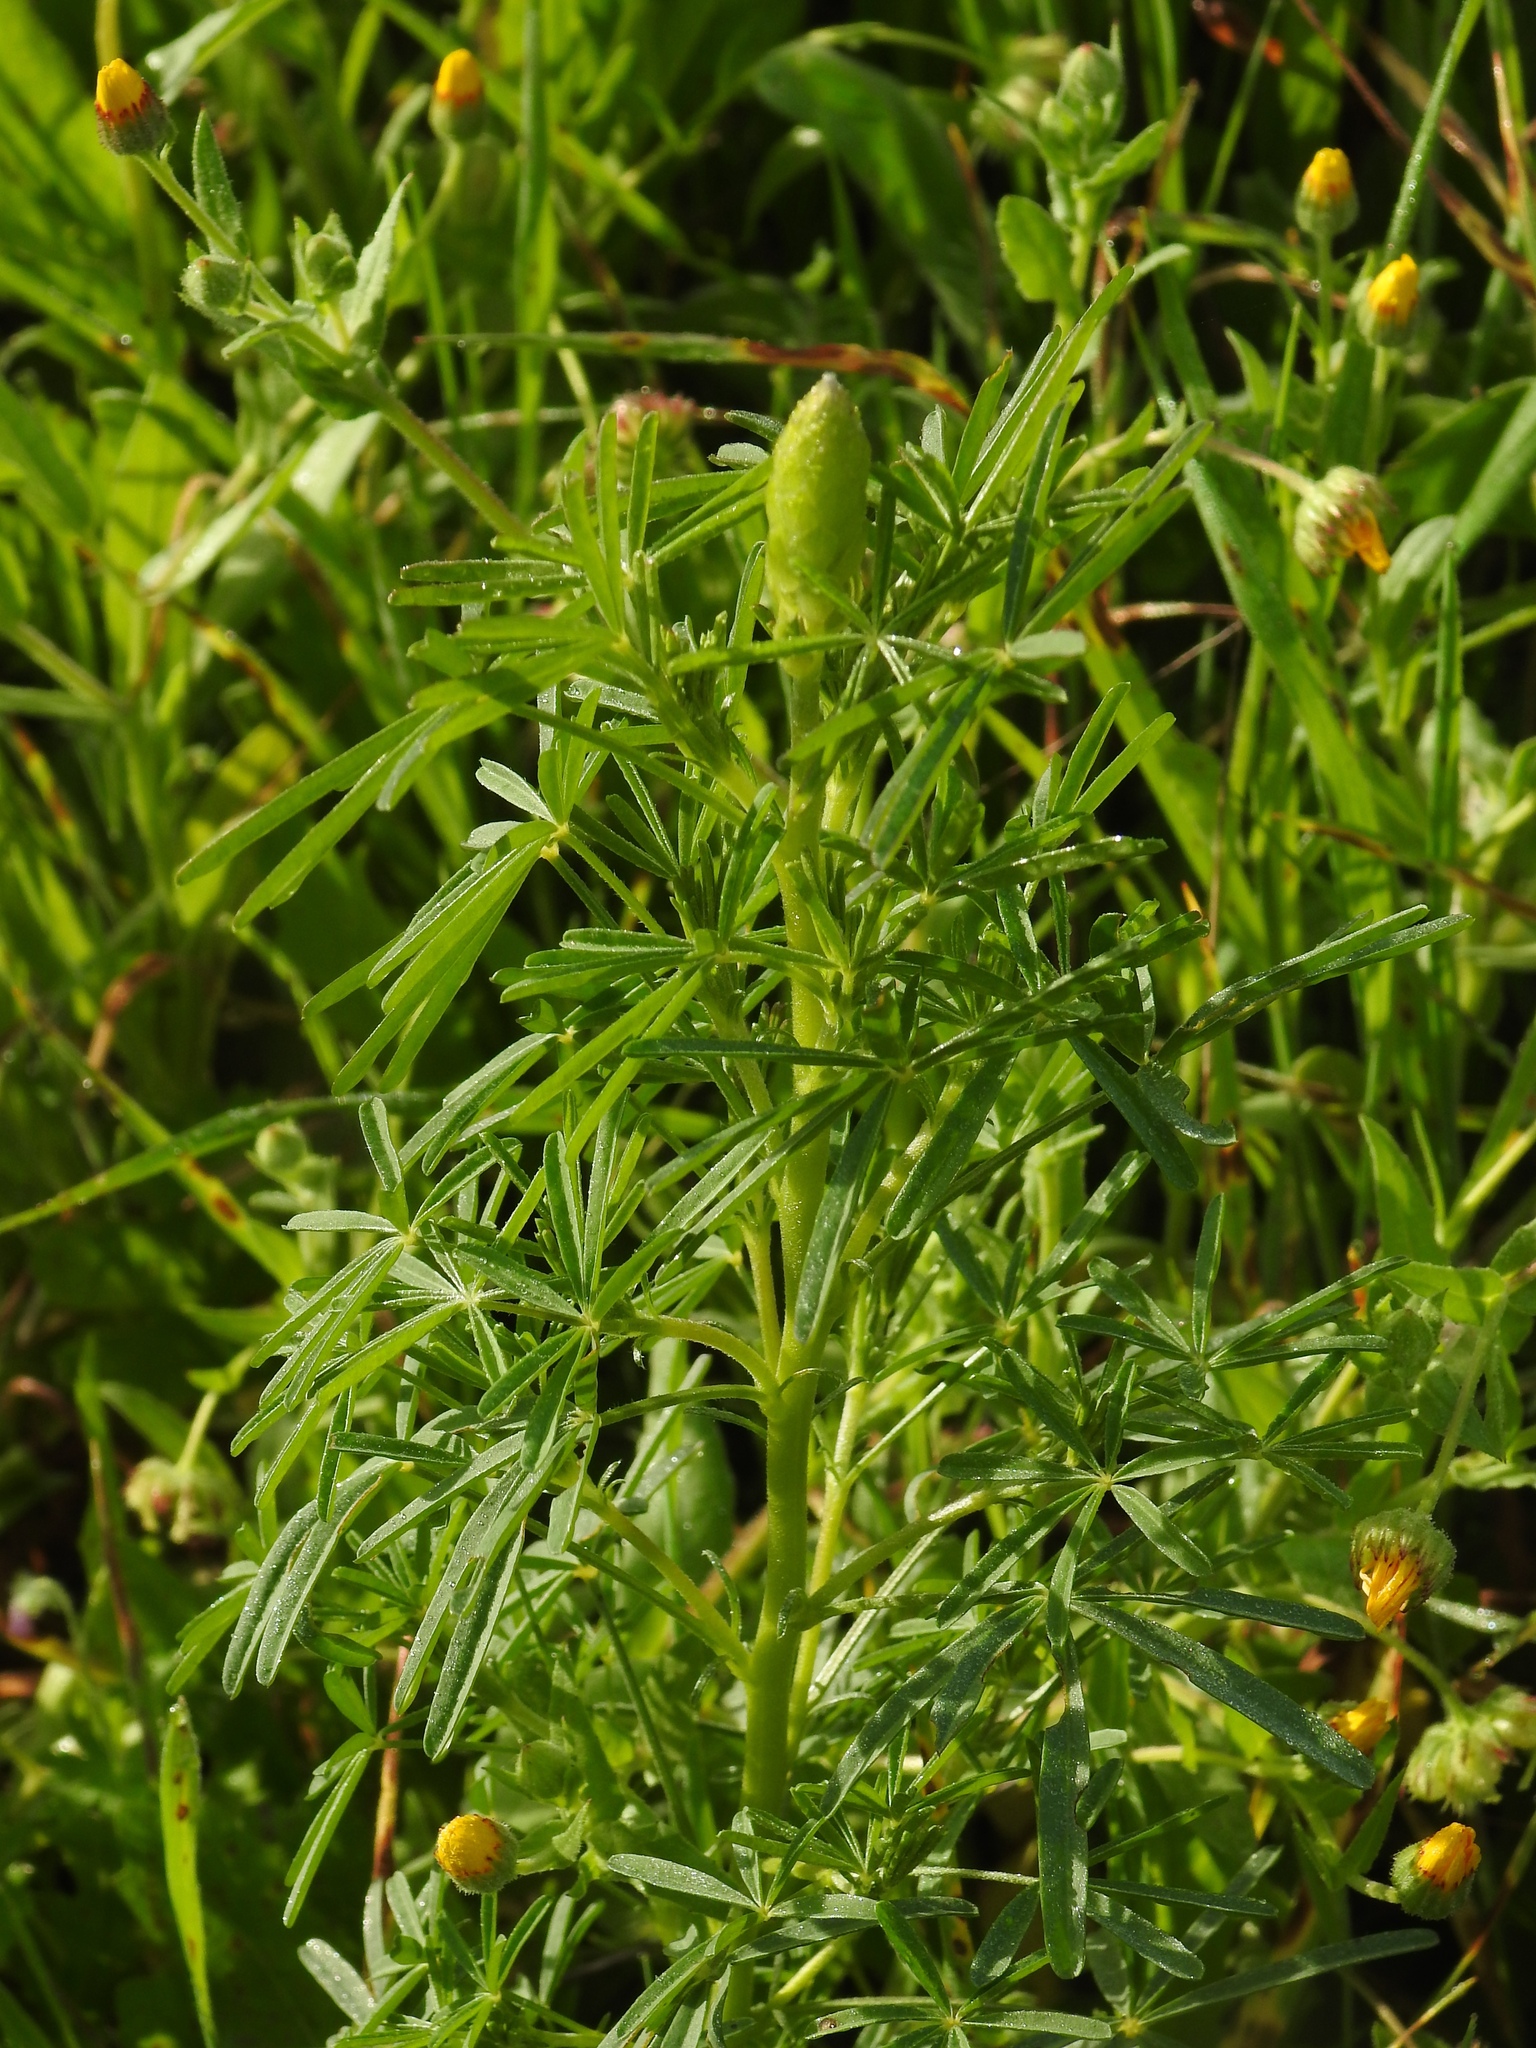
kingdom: Plantae
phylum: Tracheophyta
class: Magnoliopsida
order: Fabales
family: Fabaceae
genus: Lupinus
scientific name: Lupinus angustifolius
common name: Narrow-leaved lupin
